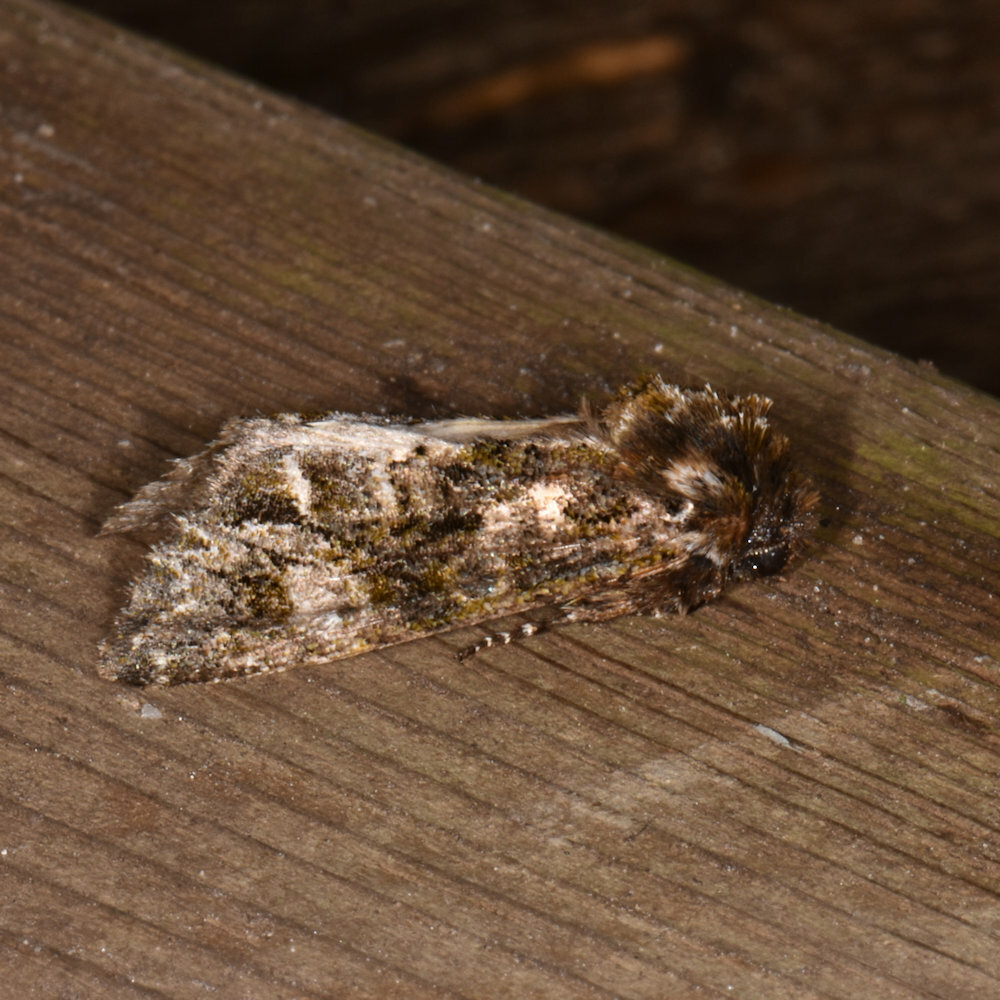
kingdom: Animalia
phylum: Arthropoda
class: Insecta
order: Lepidoptera
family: Noctuidae
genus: Psaphida
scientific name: Psaphida grotei
